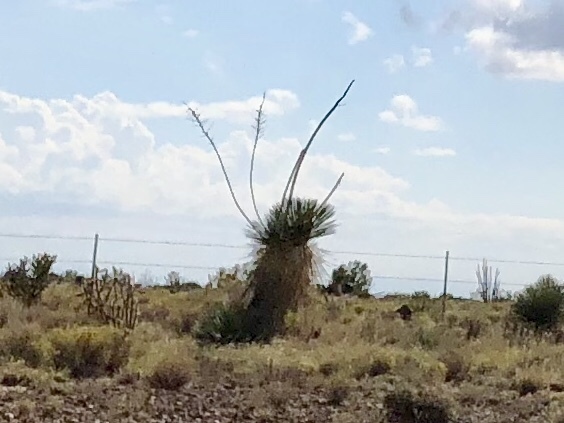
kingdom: Plantae
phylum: Tracheophyta
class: Liliopsida
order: Asparagales
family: Asparagaceae
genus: Yucca
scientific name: Yucca elata
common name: Palmella
